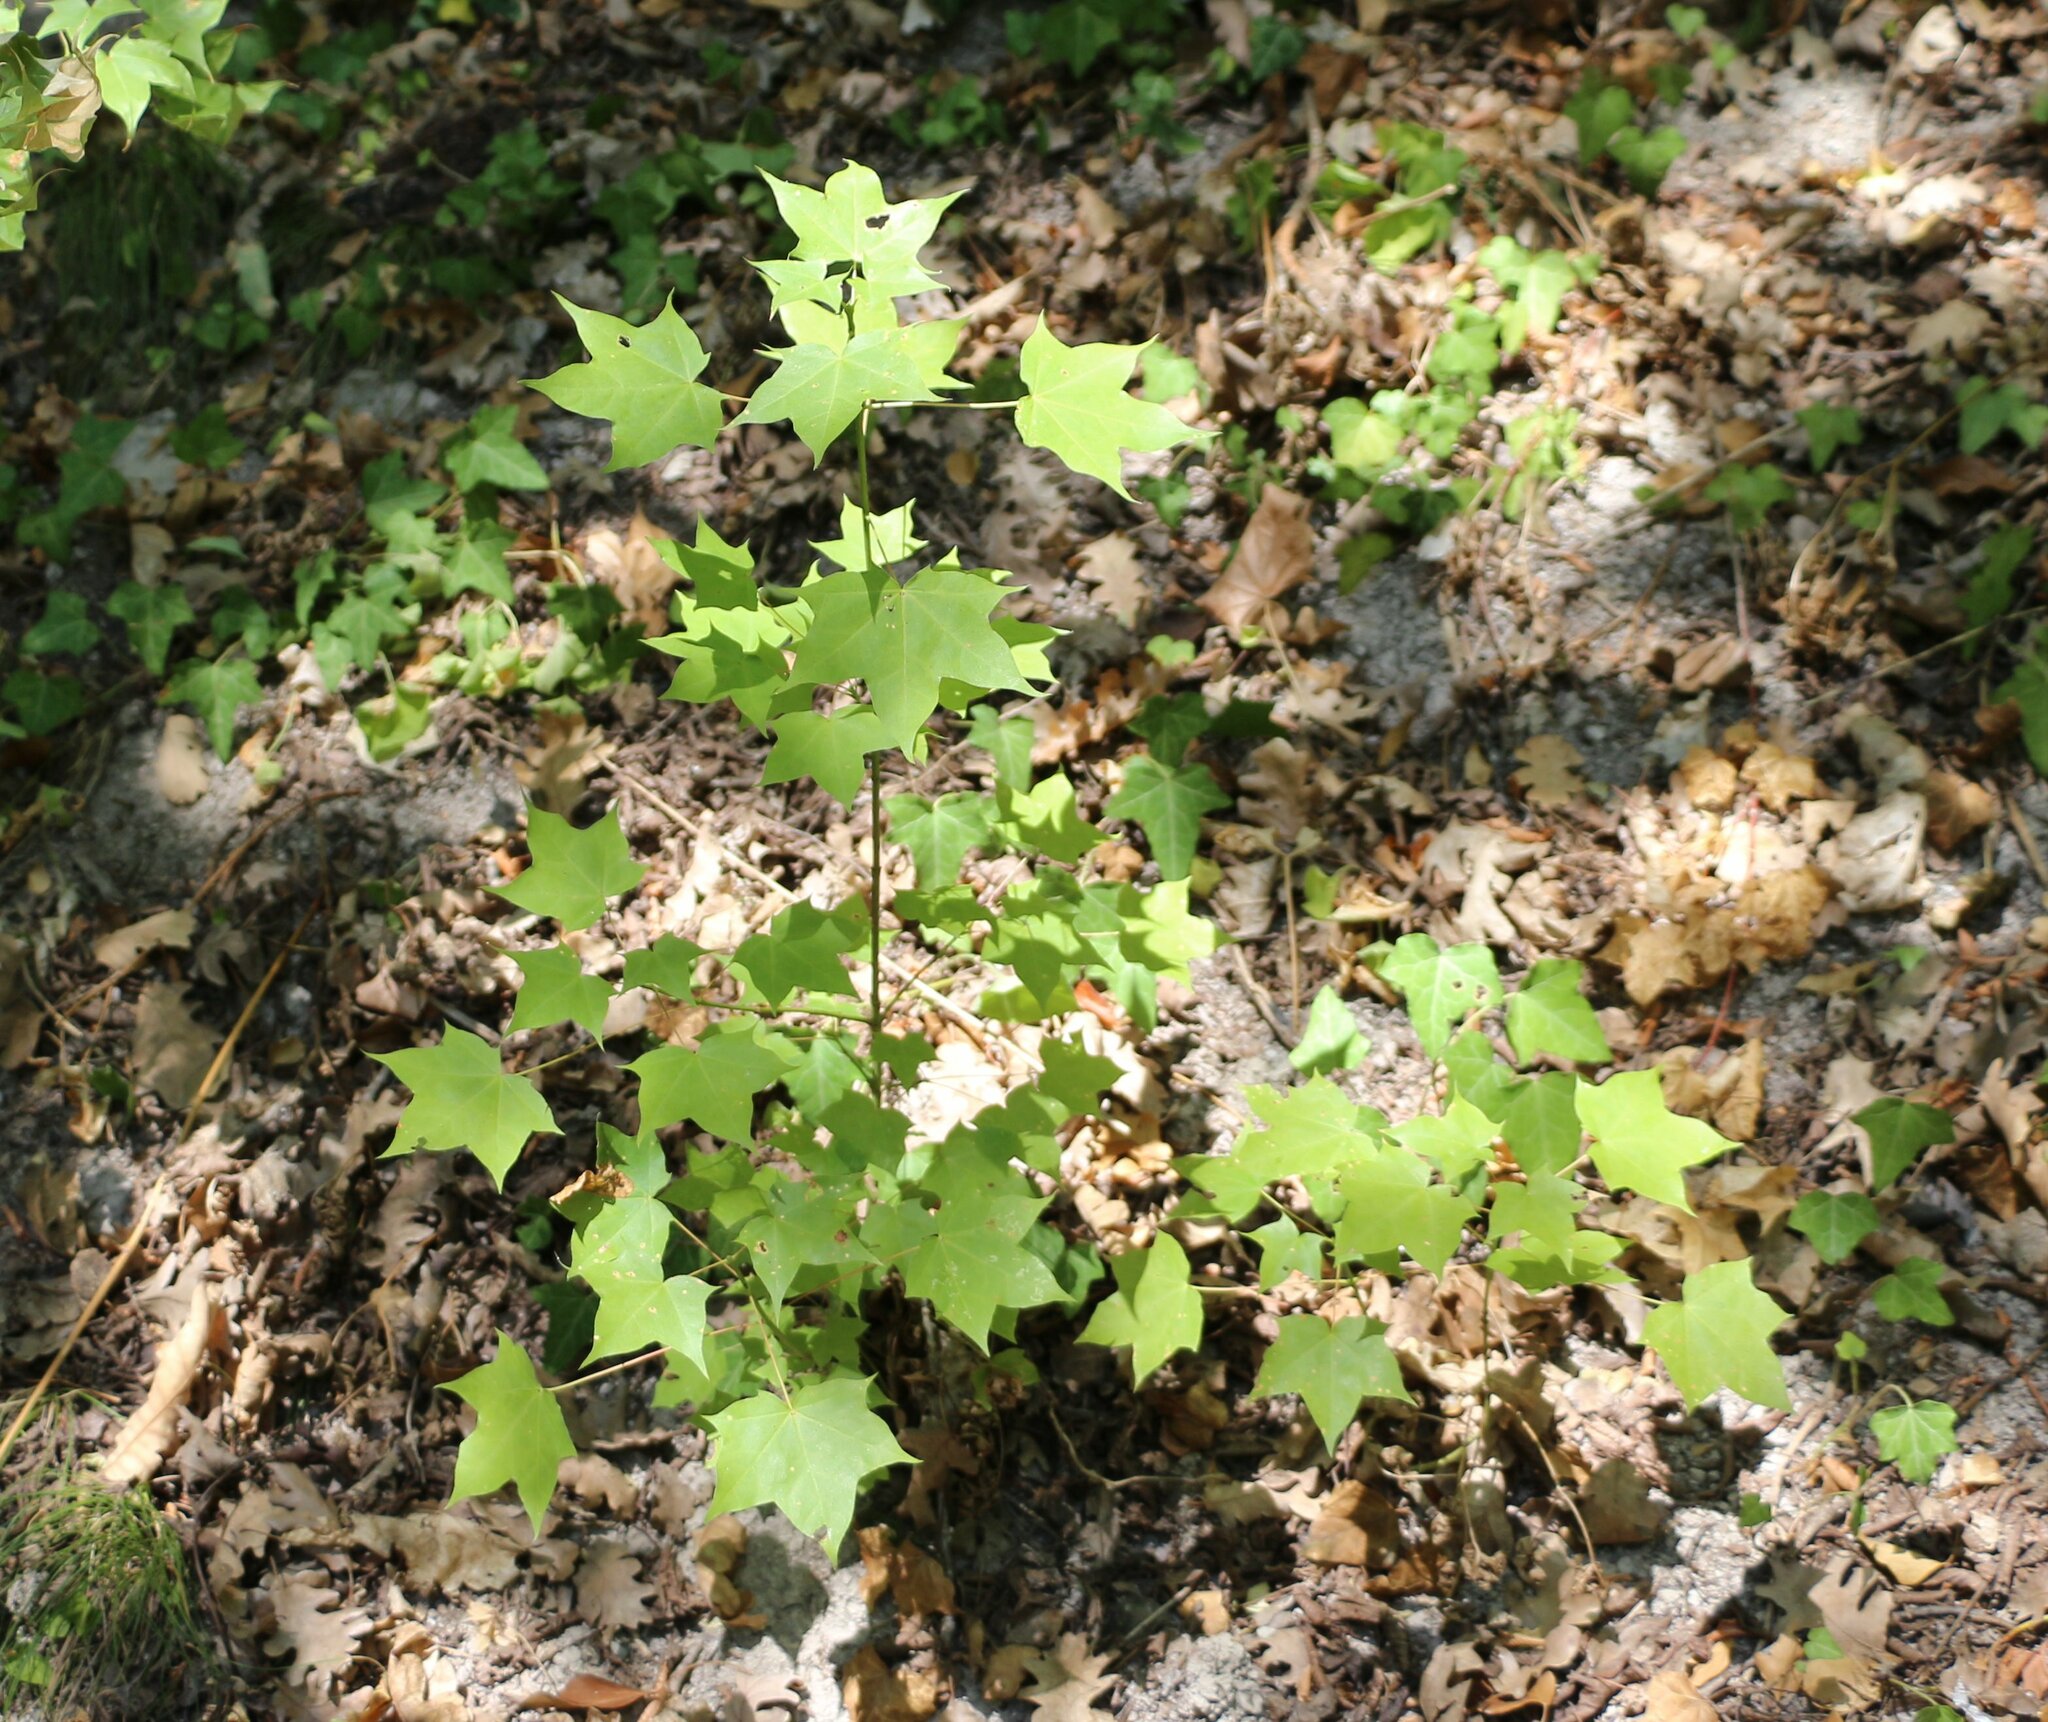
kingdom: Plantae
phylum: Tracheophyta
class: Magnoliopsida
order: Sapindales
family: Sapindaceae
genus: Acer
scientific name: Acer cappadocicum
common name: Cappadocian maple
